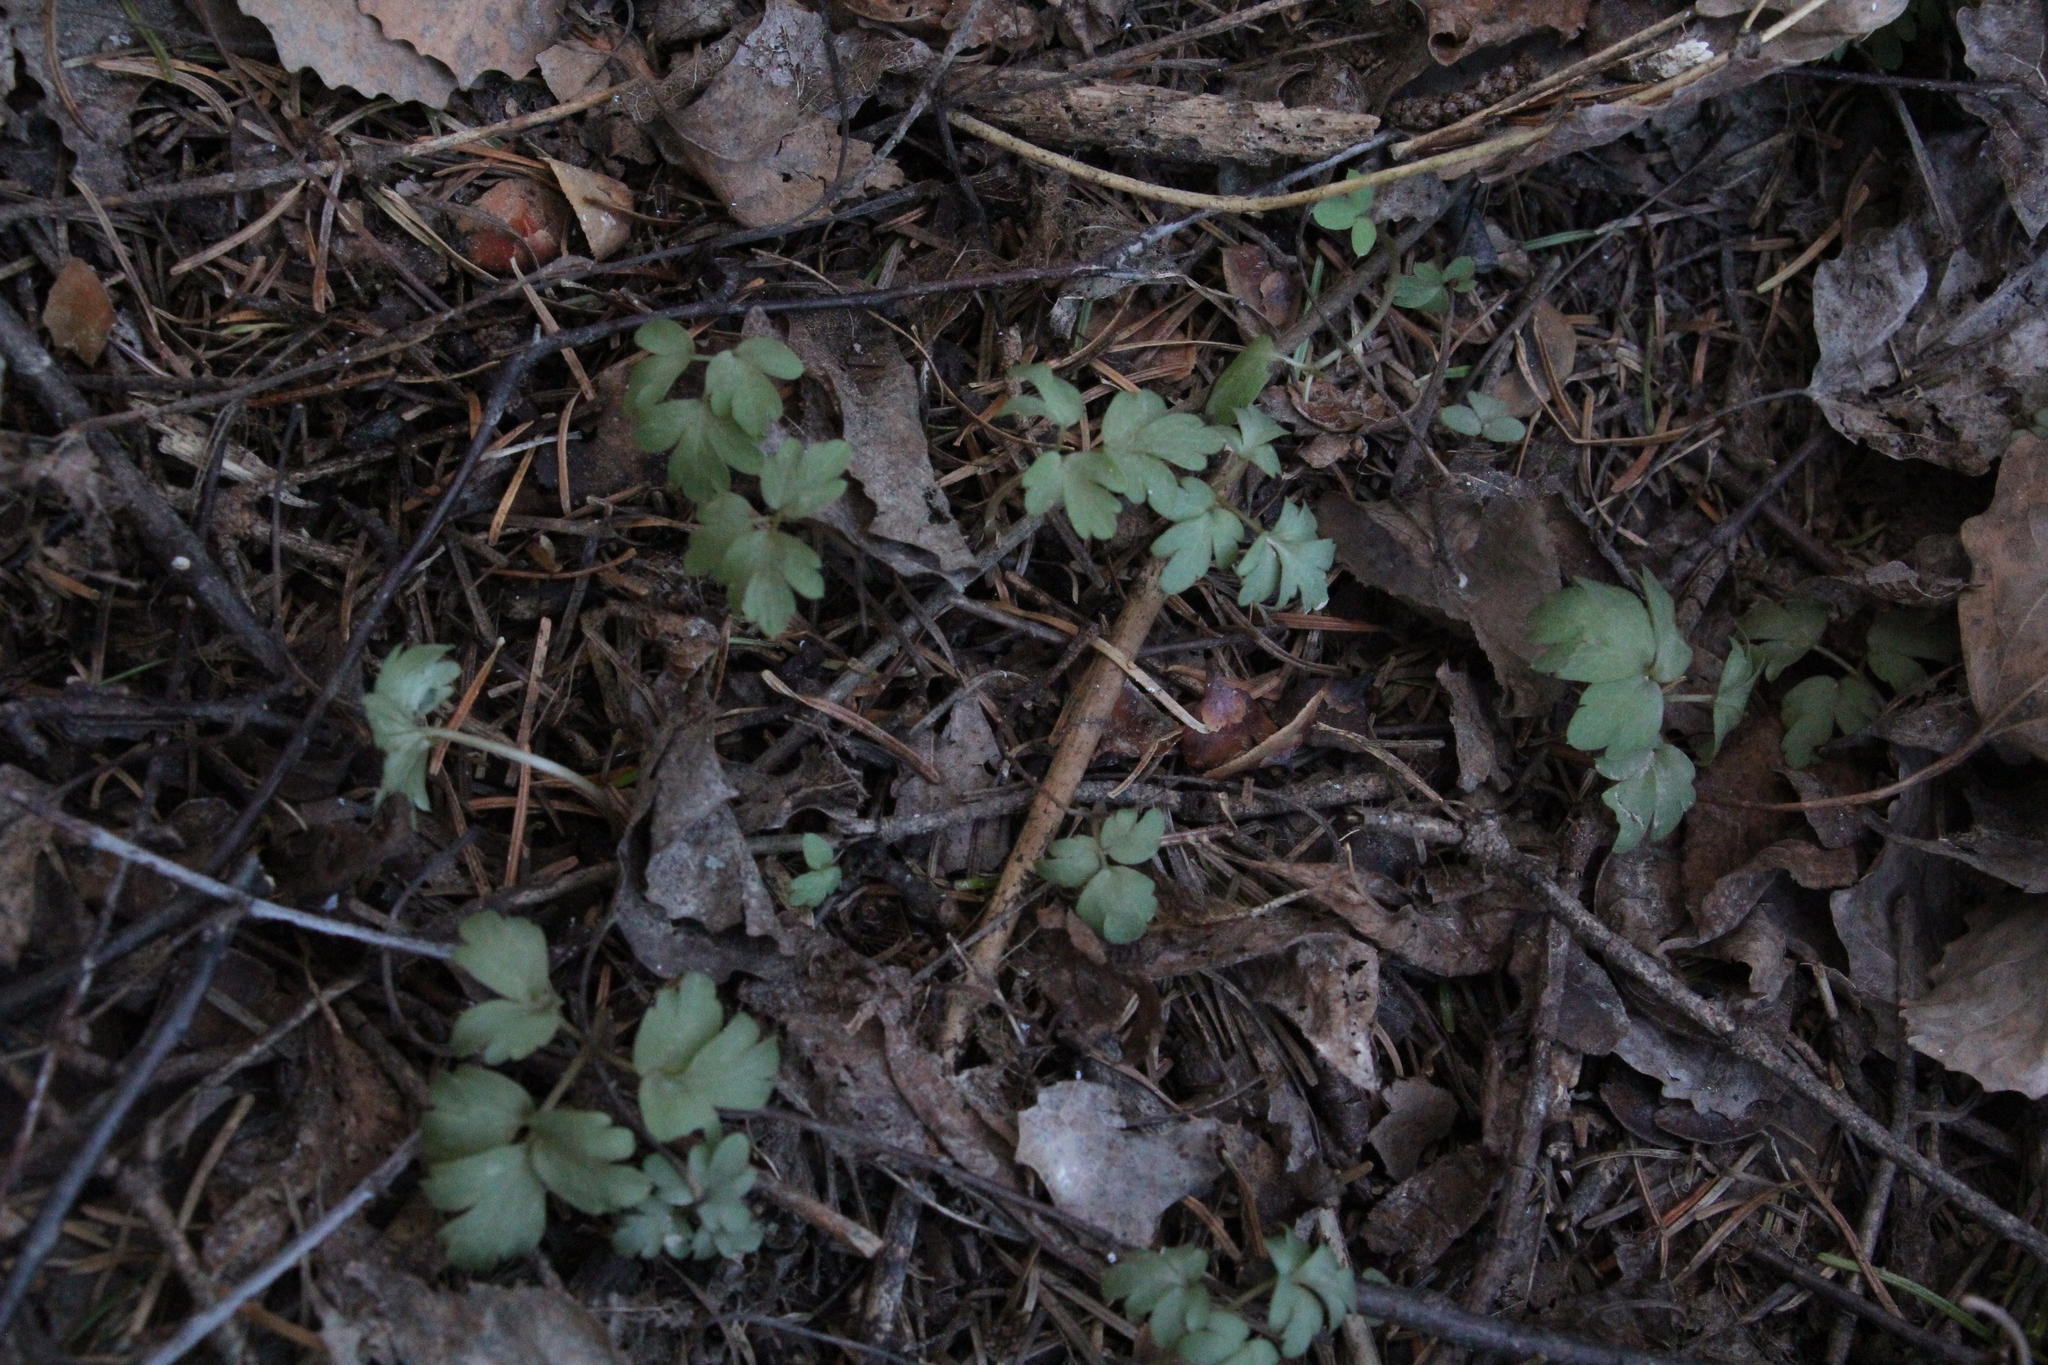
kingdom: Plantae
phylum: Tracheophyta
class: Magnoliopsida
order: Dipsacales
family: Viburnaceae
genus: Adoxa
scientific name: Adoxa moschatellina
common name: Moschatel
